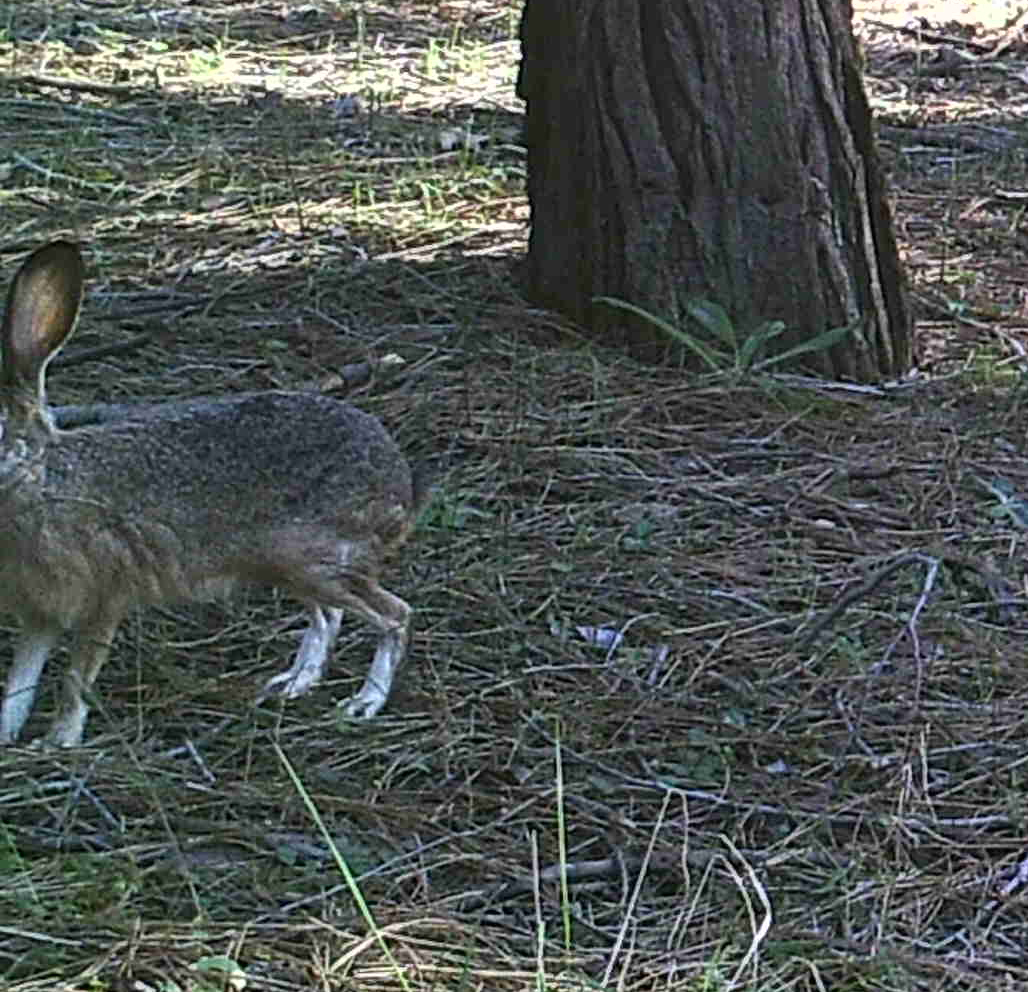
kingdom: Animalia
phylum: Chordata
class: Mammalia
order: Lagomorpha
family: Leporidae
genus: Lepus
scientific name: Lepus californicus
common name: Black-tailed jackrabbit
